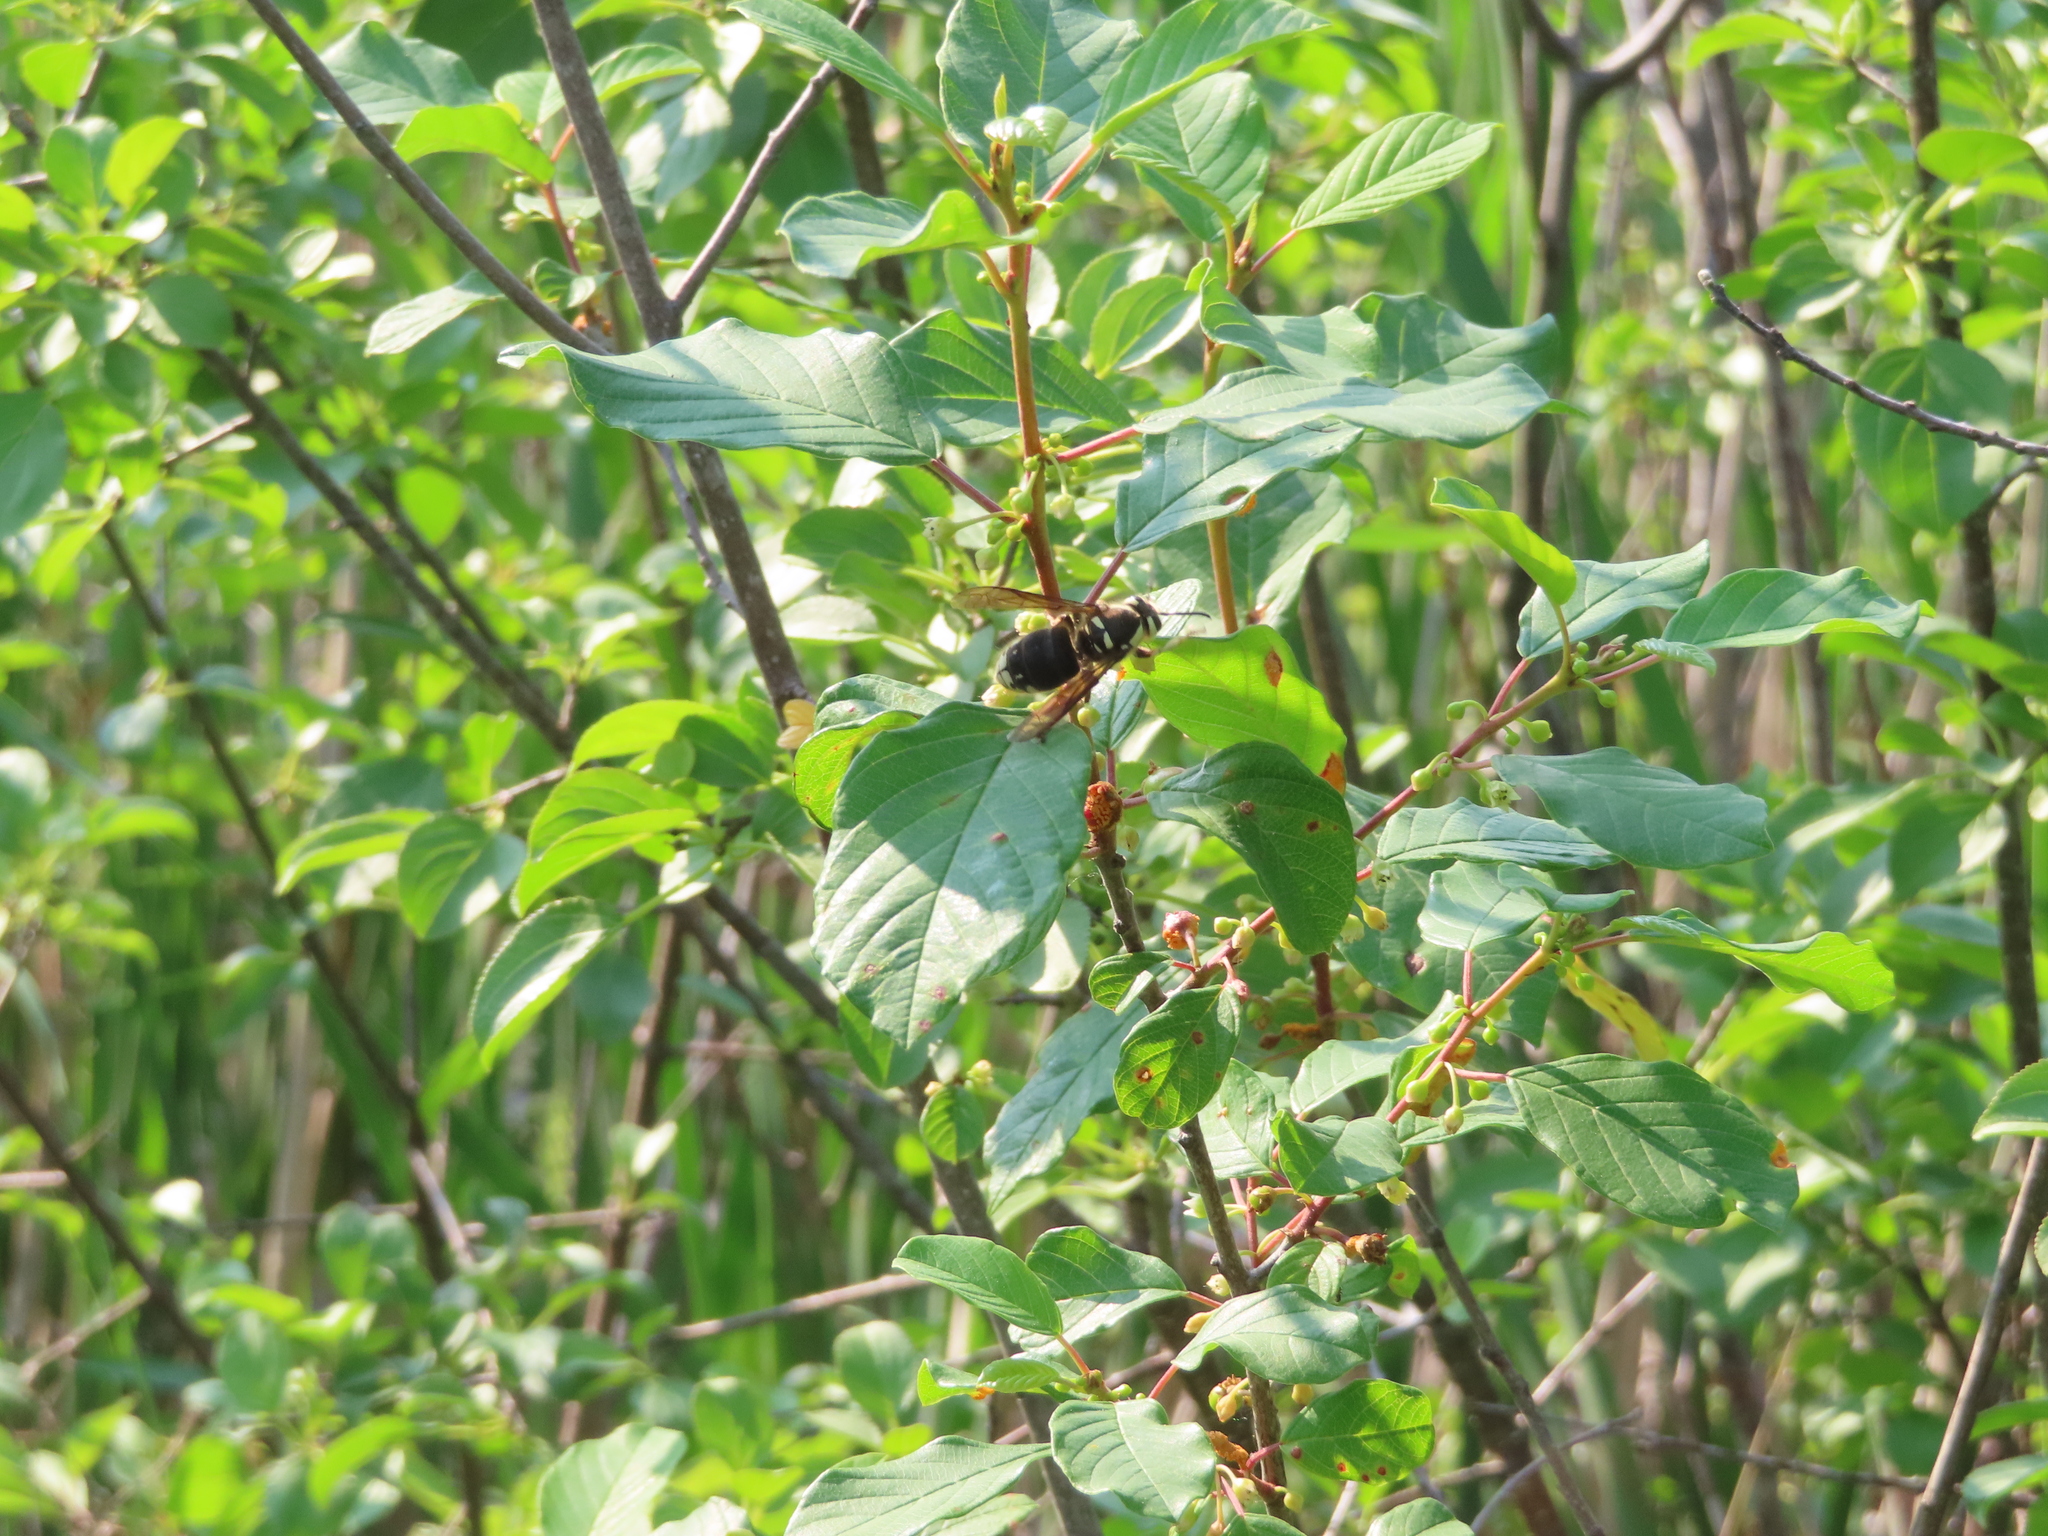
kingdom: Plantae
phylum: Tracheophyta
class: Magnoliopsida
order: Rosales
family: Rhamnaceae
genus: Frangula
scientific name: Frangula alnus
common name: Alder buckthorn
